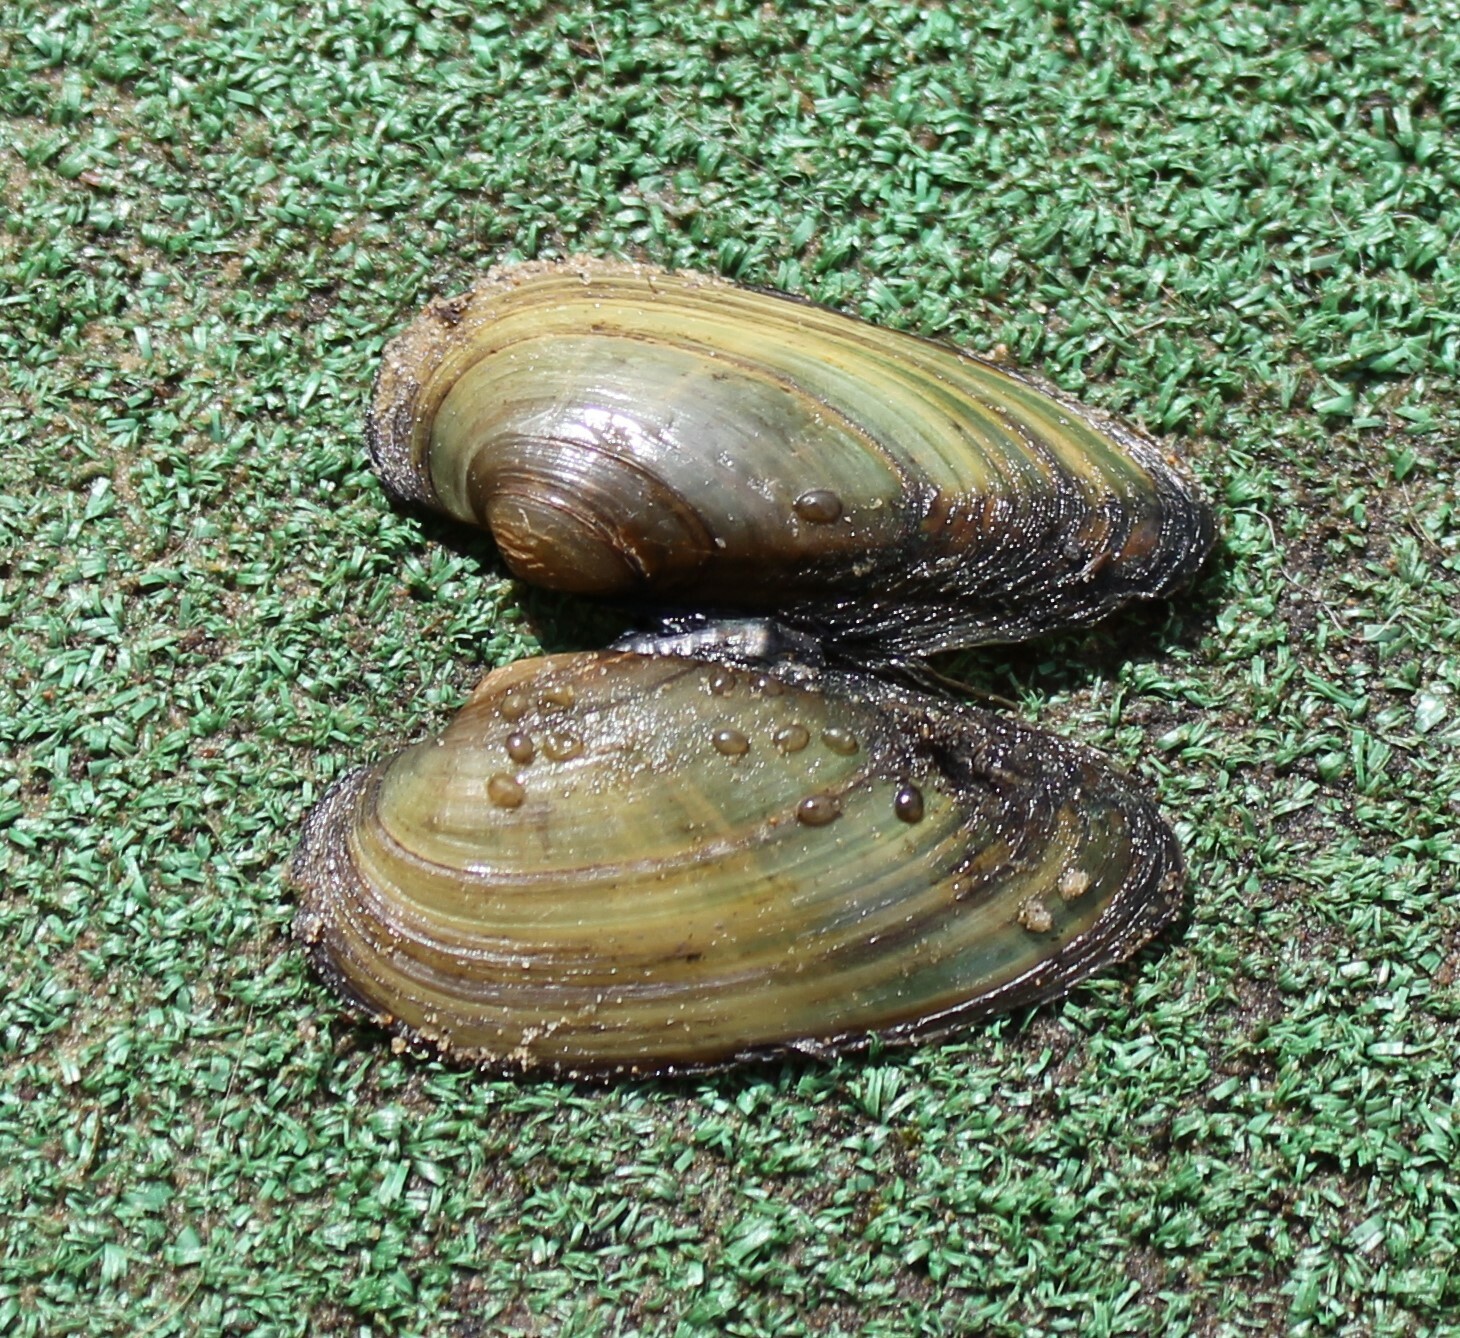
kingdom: Animalia
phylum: Mollusca
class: Bivalvia
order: Unionida
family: Unionidae
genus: Unio
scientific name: Unio tumidus
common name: Swollen river mussel
